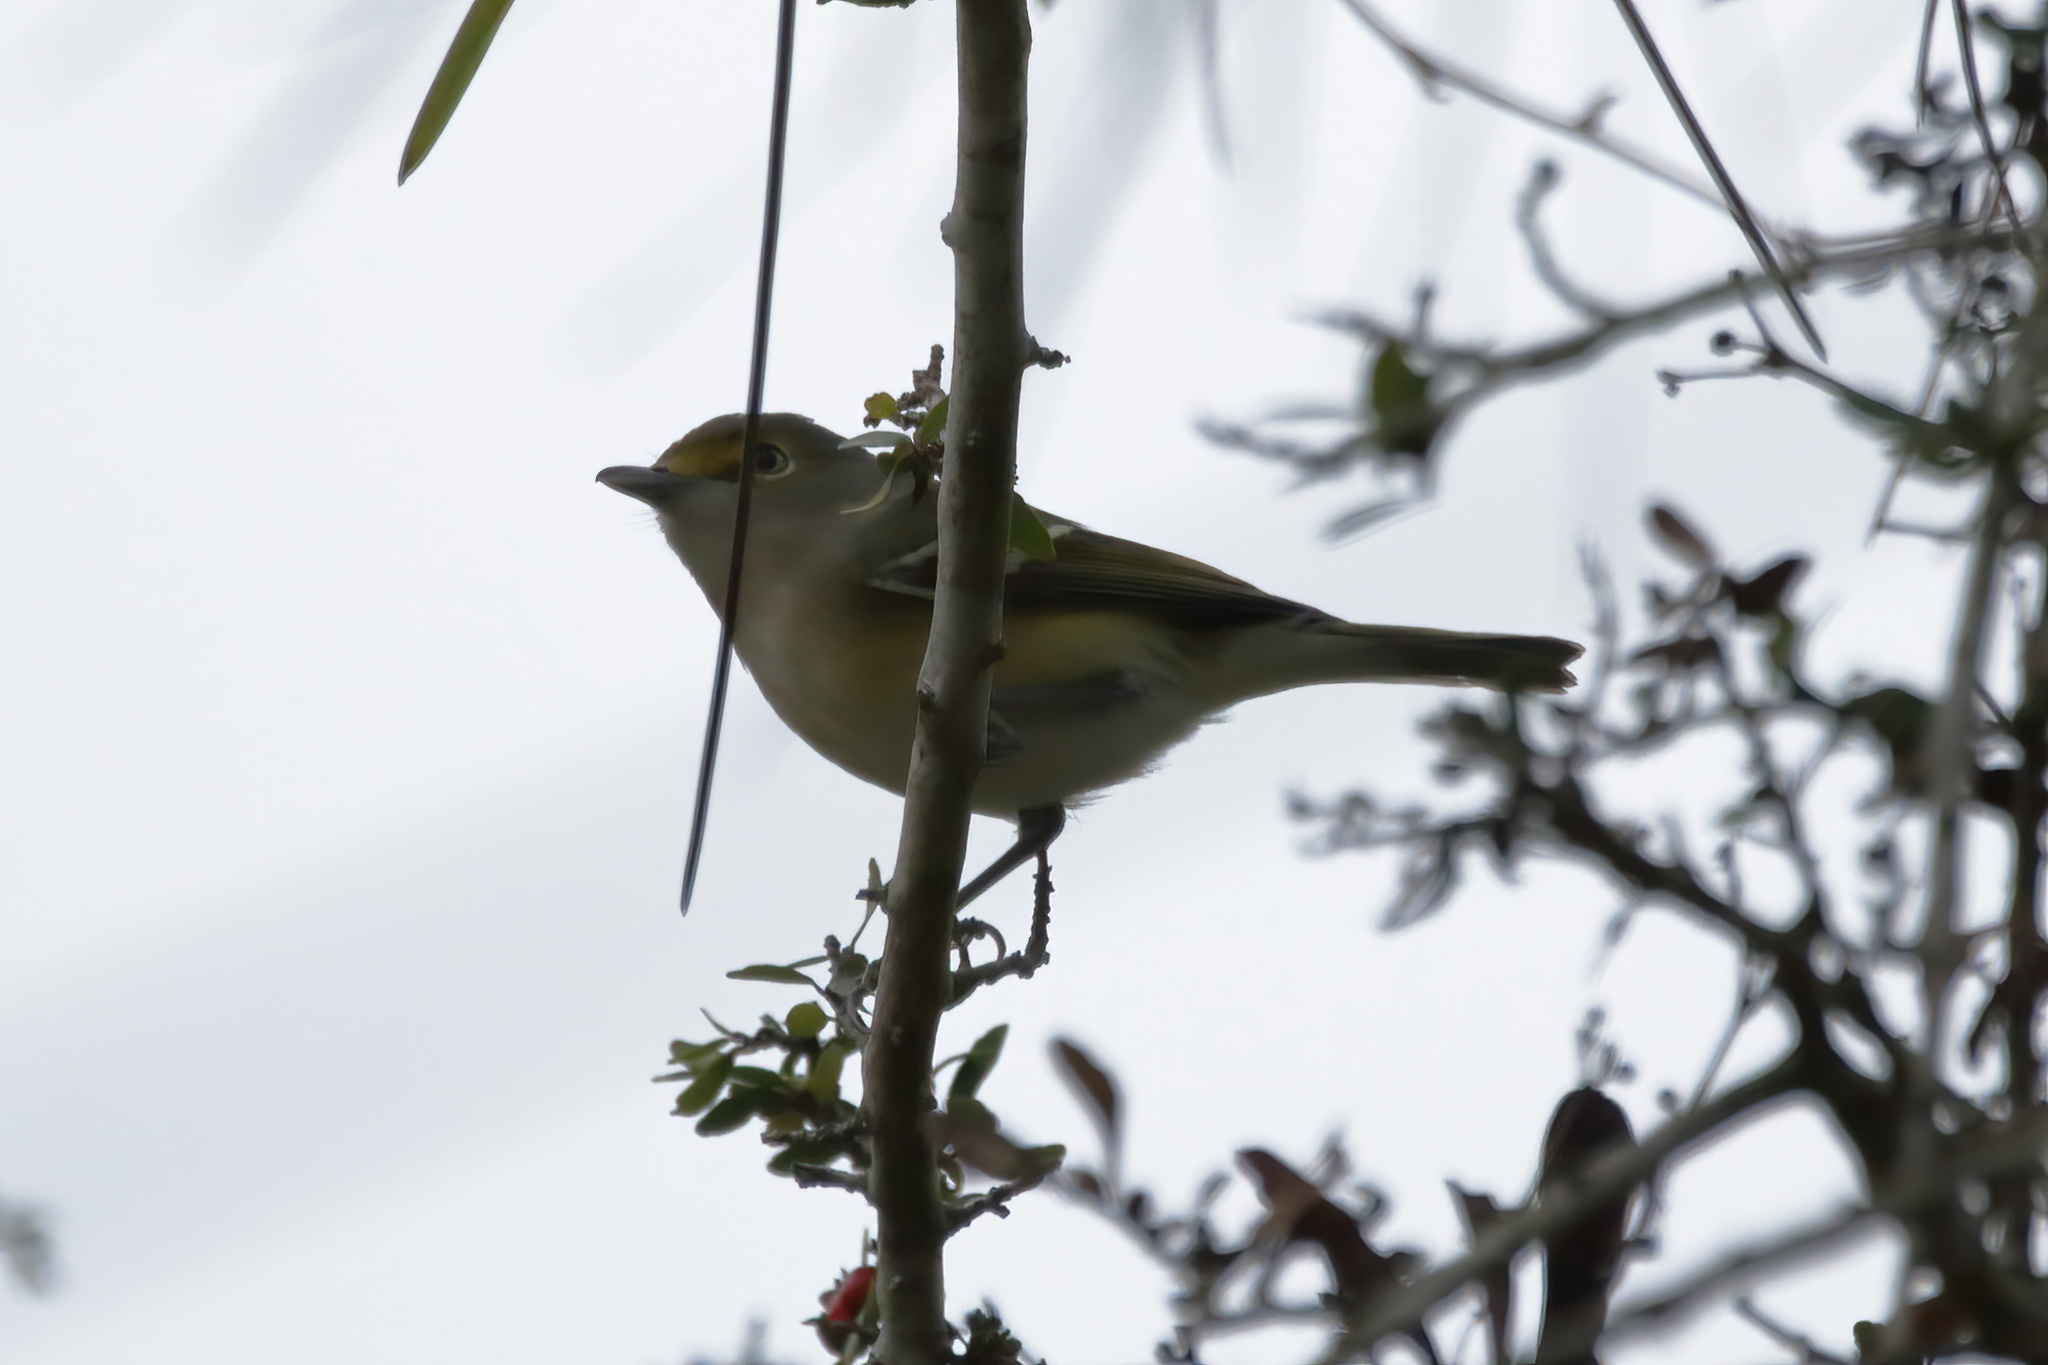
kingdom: Animalia
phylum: Chordata
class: Aves
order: Passeriformes
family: Vireonidae
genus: Vireo
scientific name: Vireo griseus
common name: White-eyed vireo
